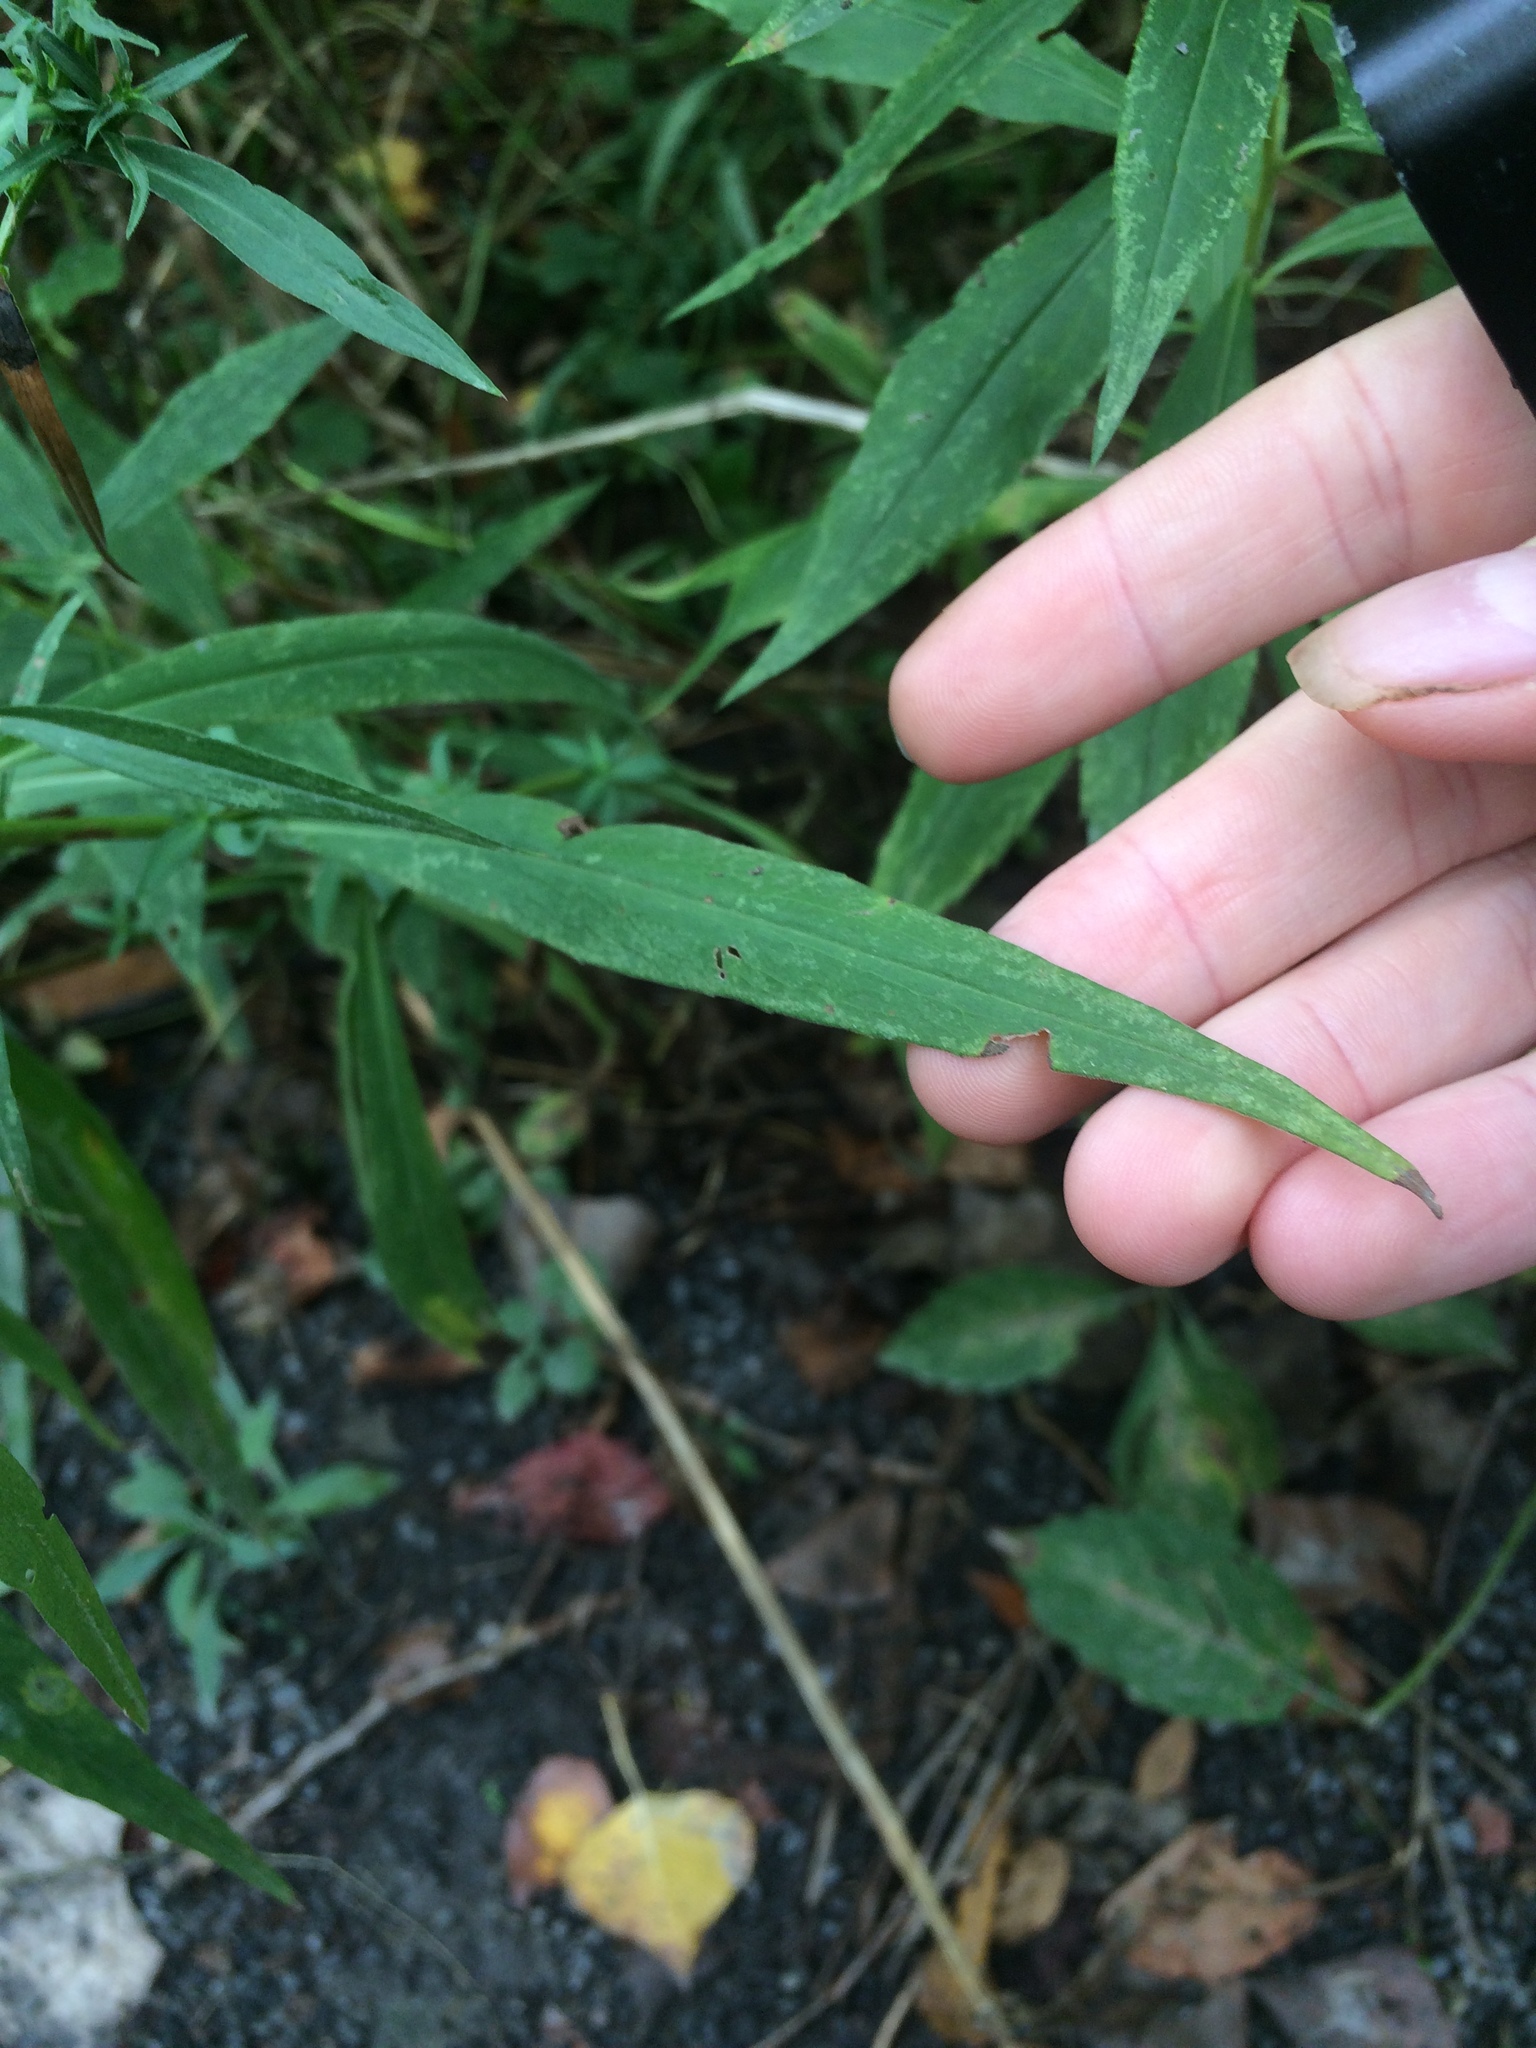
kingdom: Plantae
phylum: Tracheophyta
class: Magnoliopsida
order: Asterales
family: Asteraceae
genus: Symphyotrichum
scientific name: Symphyotrichum lanceolatum
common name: Panicled aster
